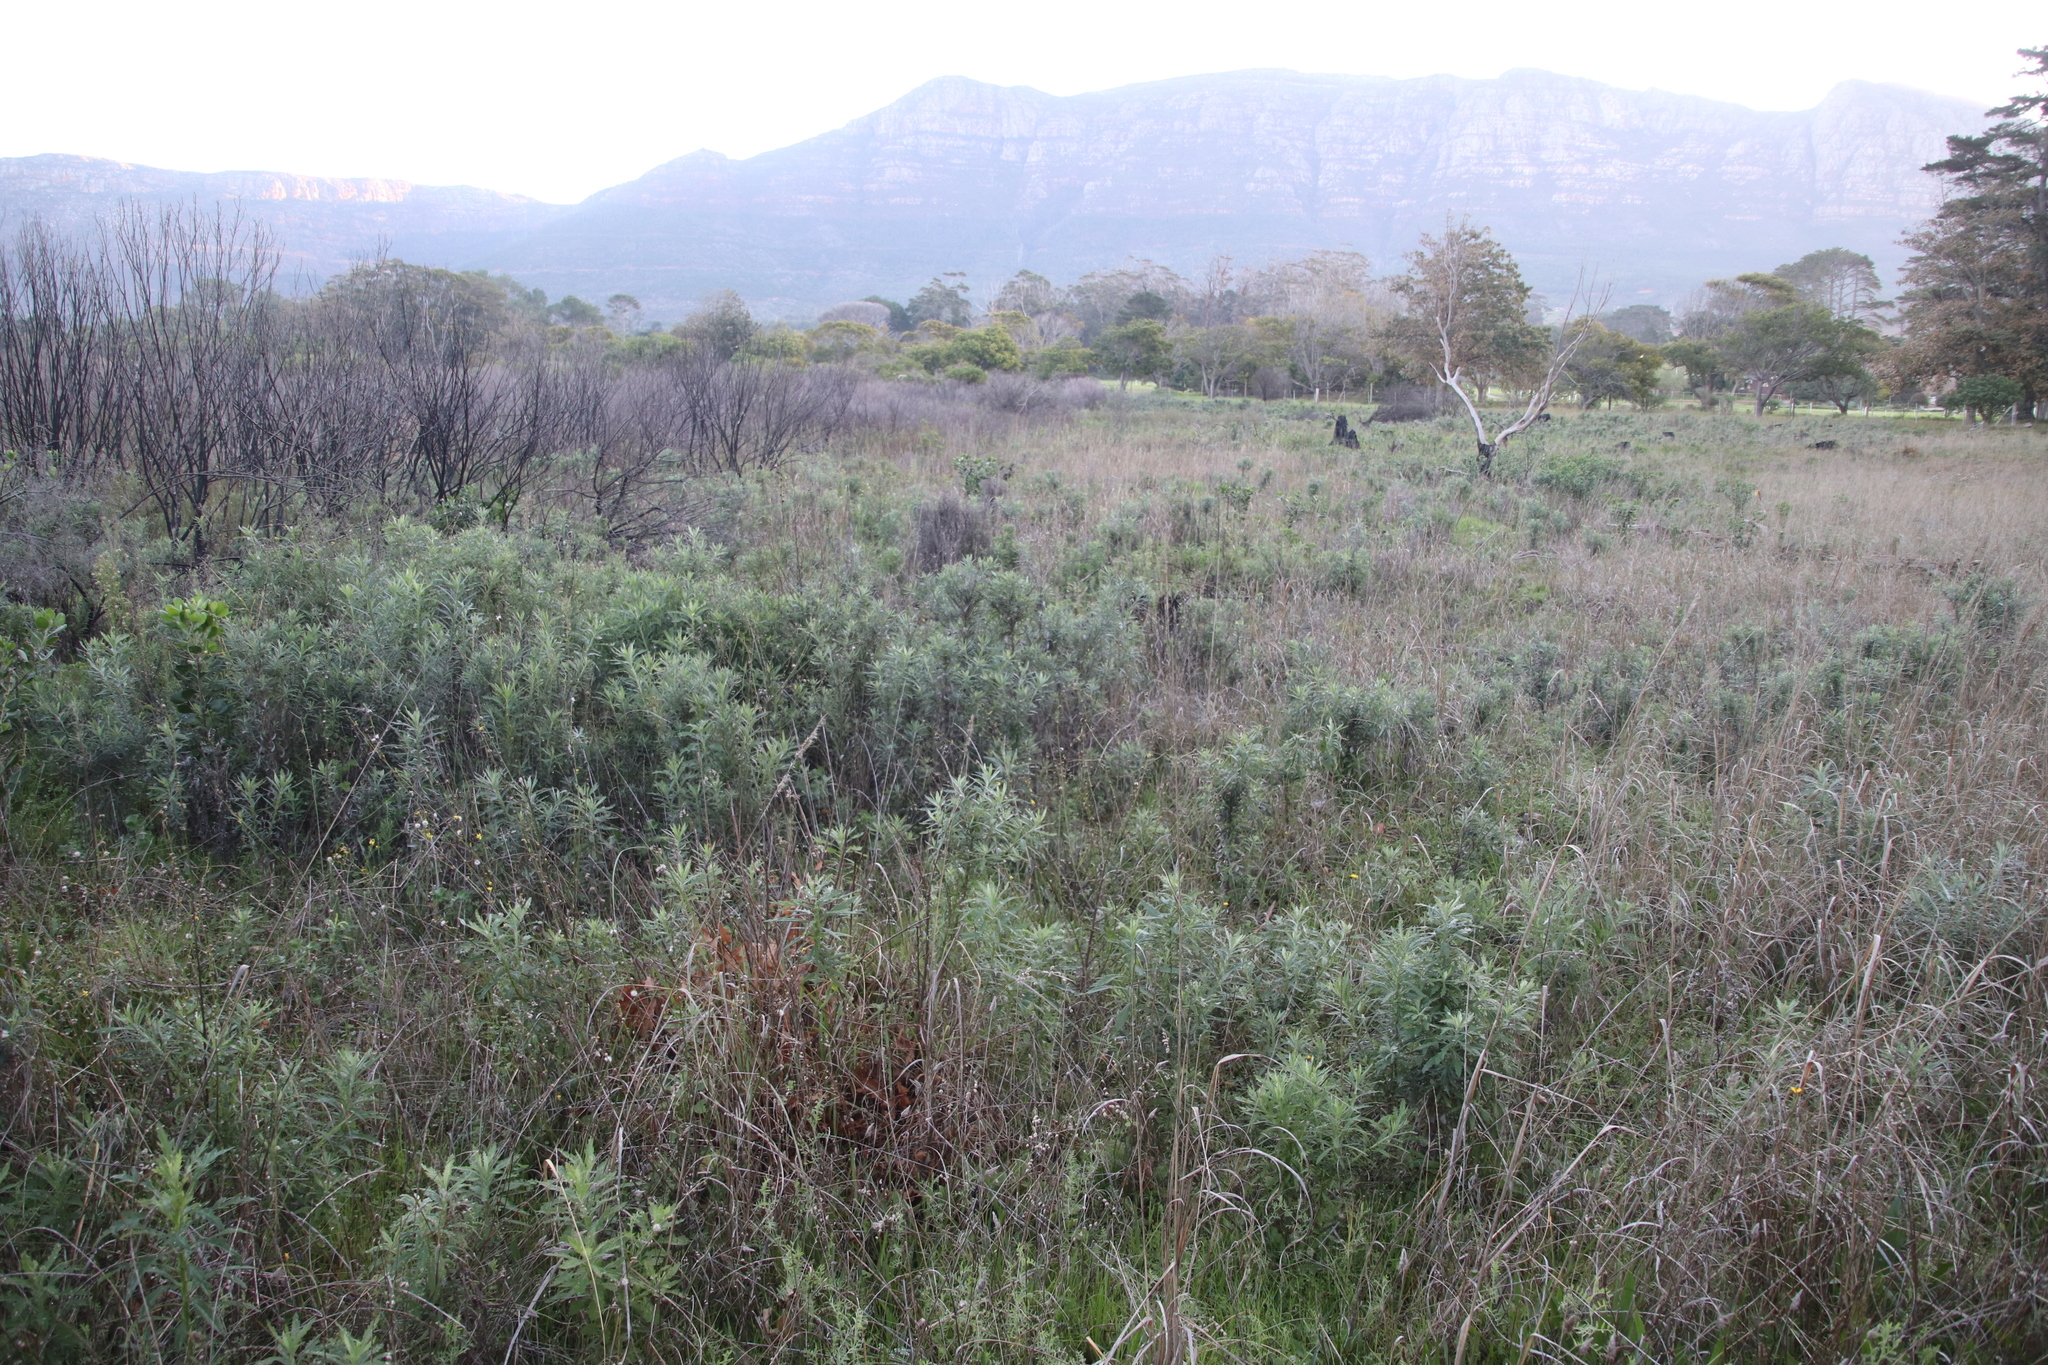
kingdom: Plantae
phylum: Tracheophyta
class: Magnoliopsida
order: Asterales
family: Asteraceae
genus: Senecio
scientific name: Senecio pterophorus
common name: Shoddy ragwort
